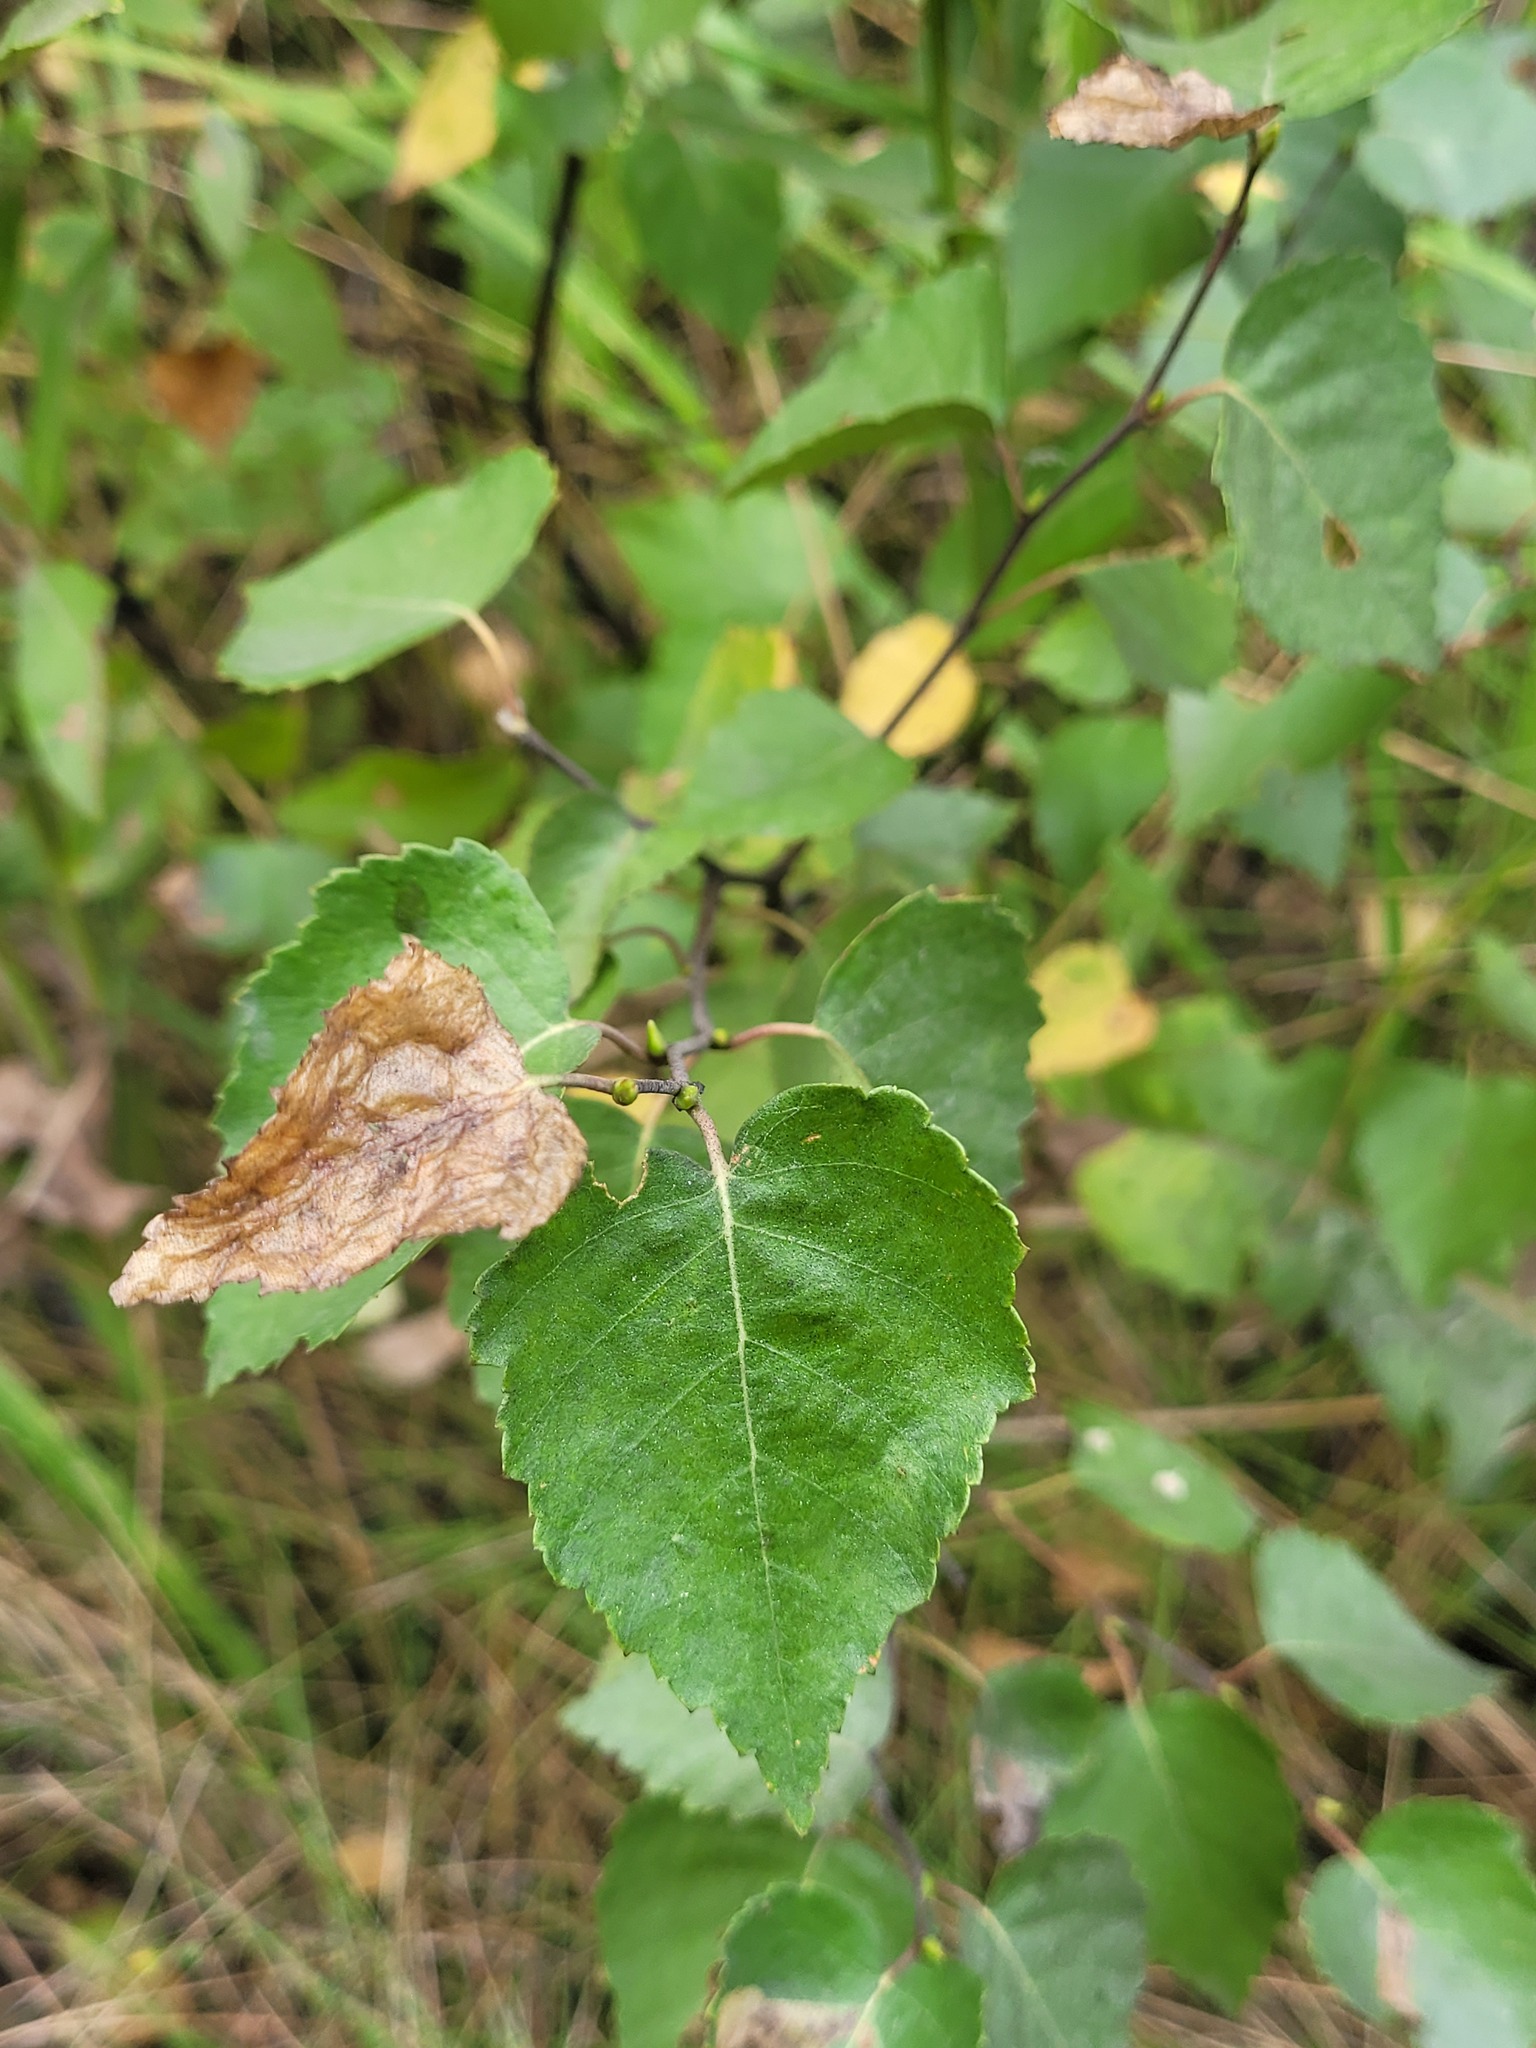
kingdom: Plantae
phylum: Tracheophyta
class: Magnoliopsida
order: Fagales
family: Betulaceae
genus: Betula
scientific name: Betula pendula
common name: Silver birch
